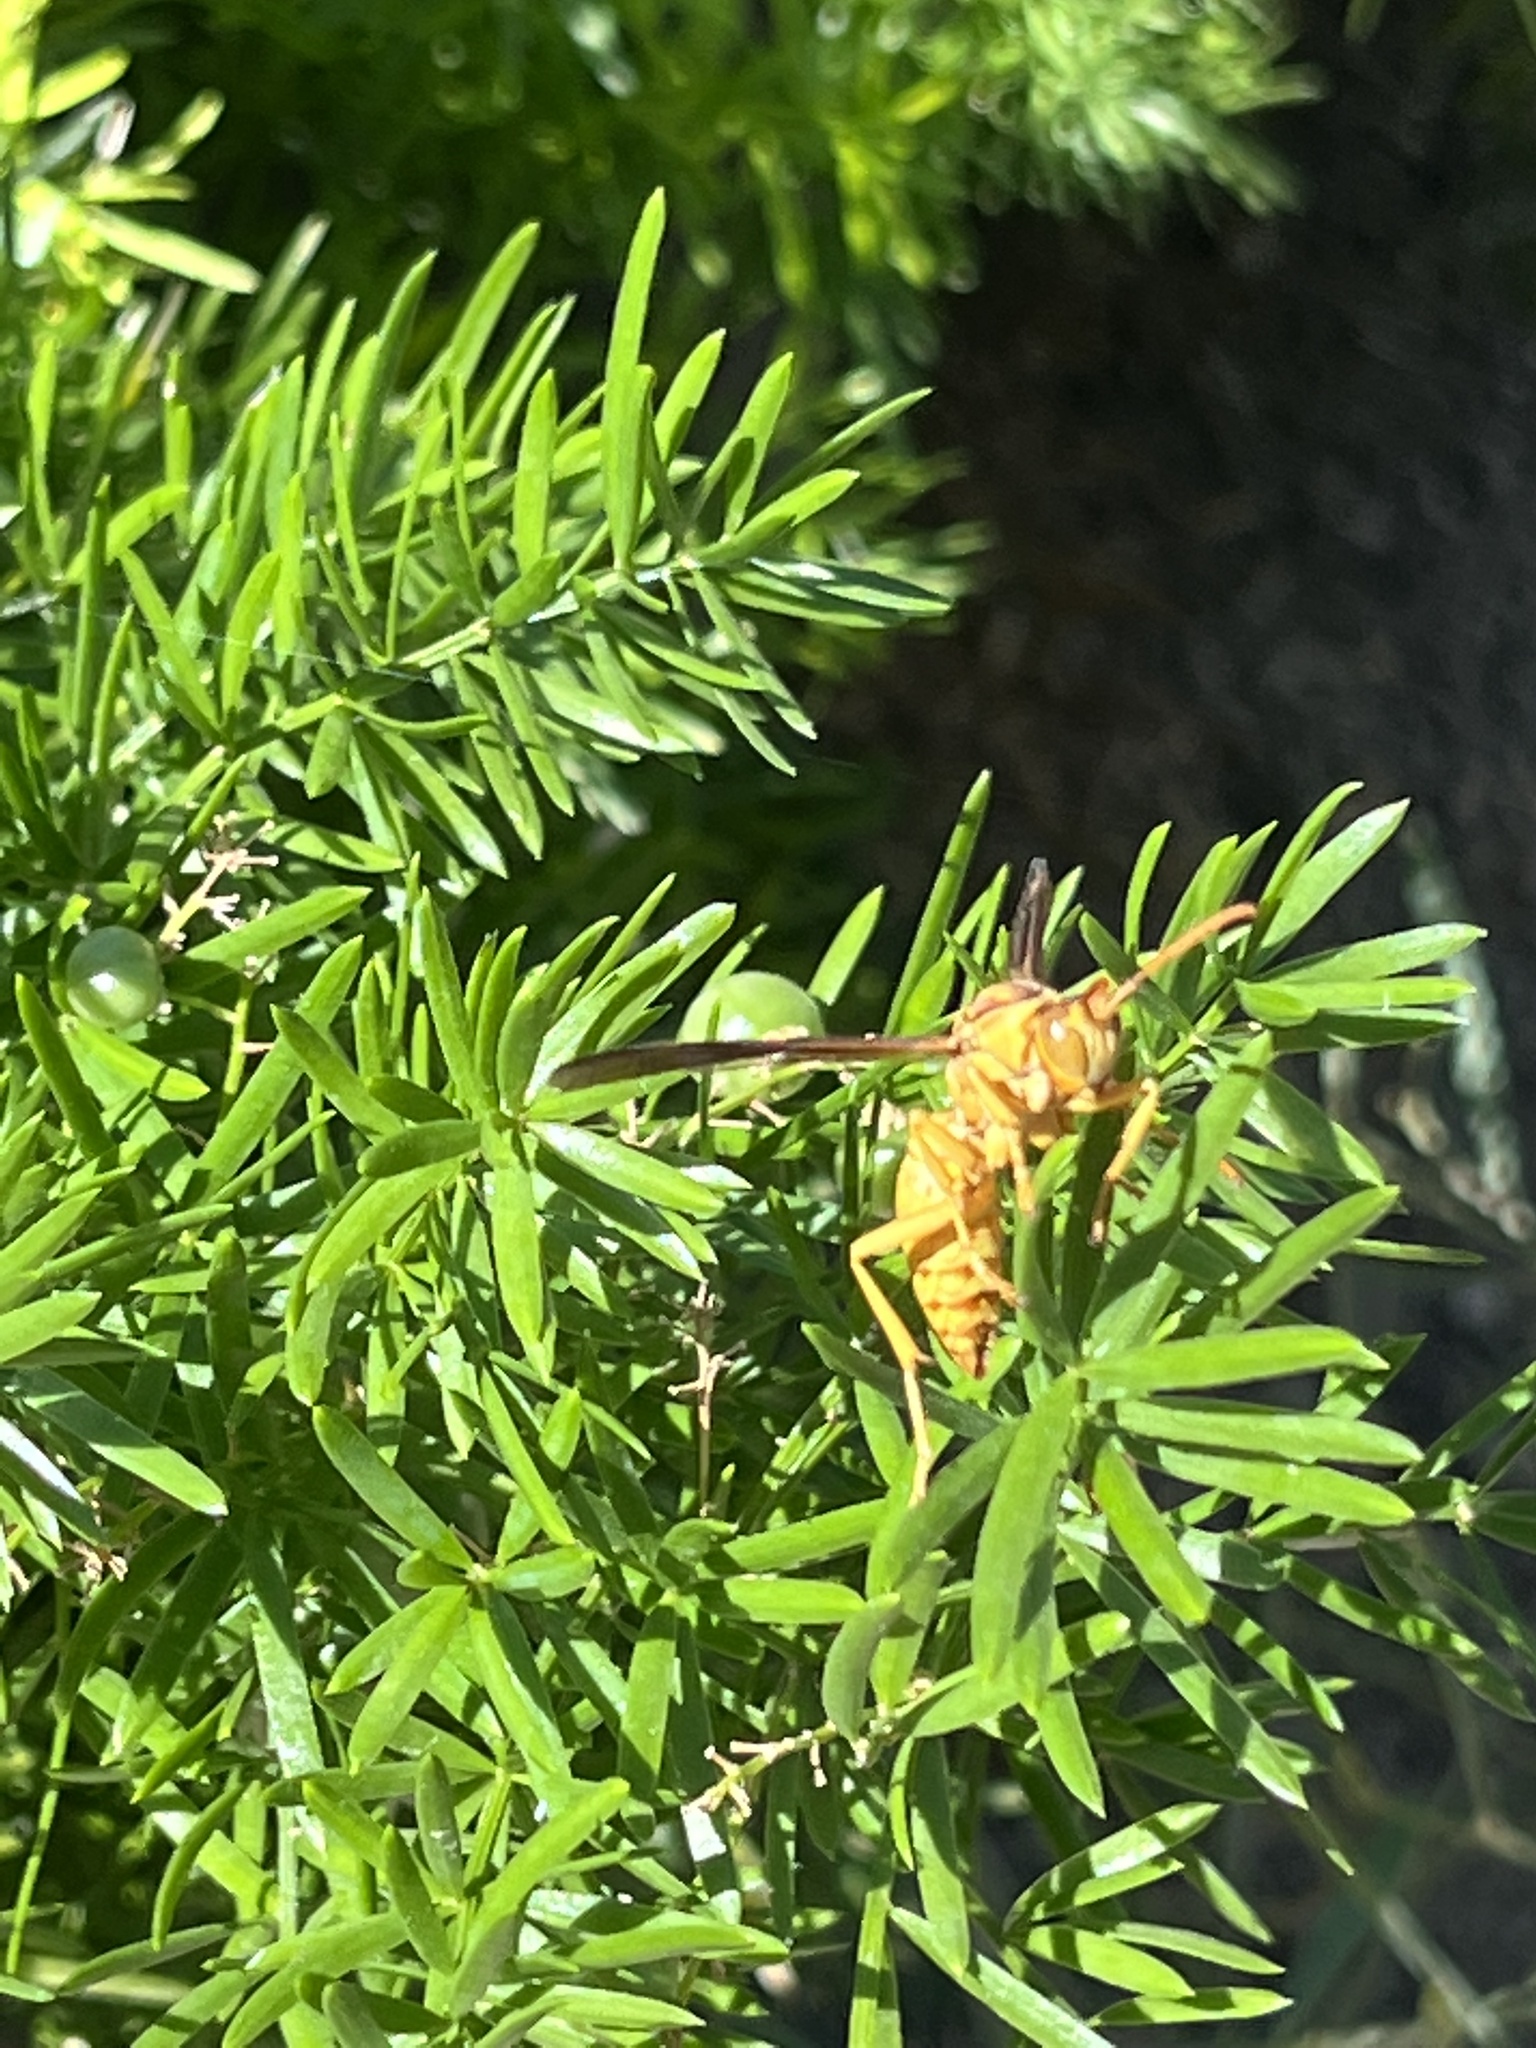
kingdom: Animalia
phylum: Arthropoda
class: Insecta
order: Hymenoptera
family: Eumenidae
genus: Polistes
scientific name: Polistes flavus
